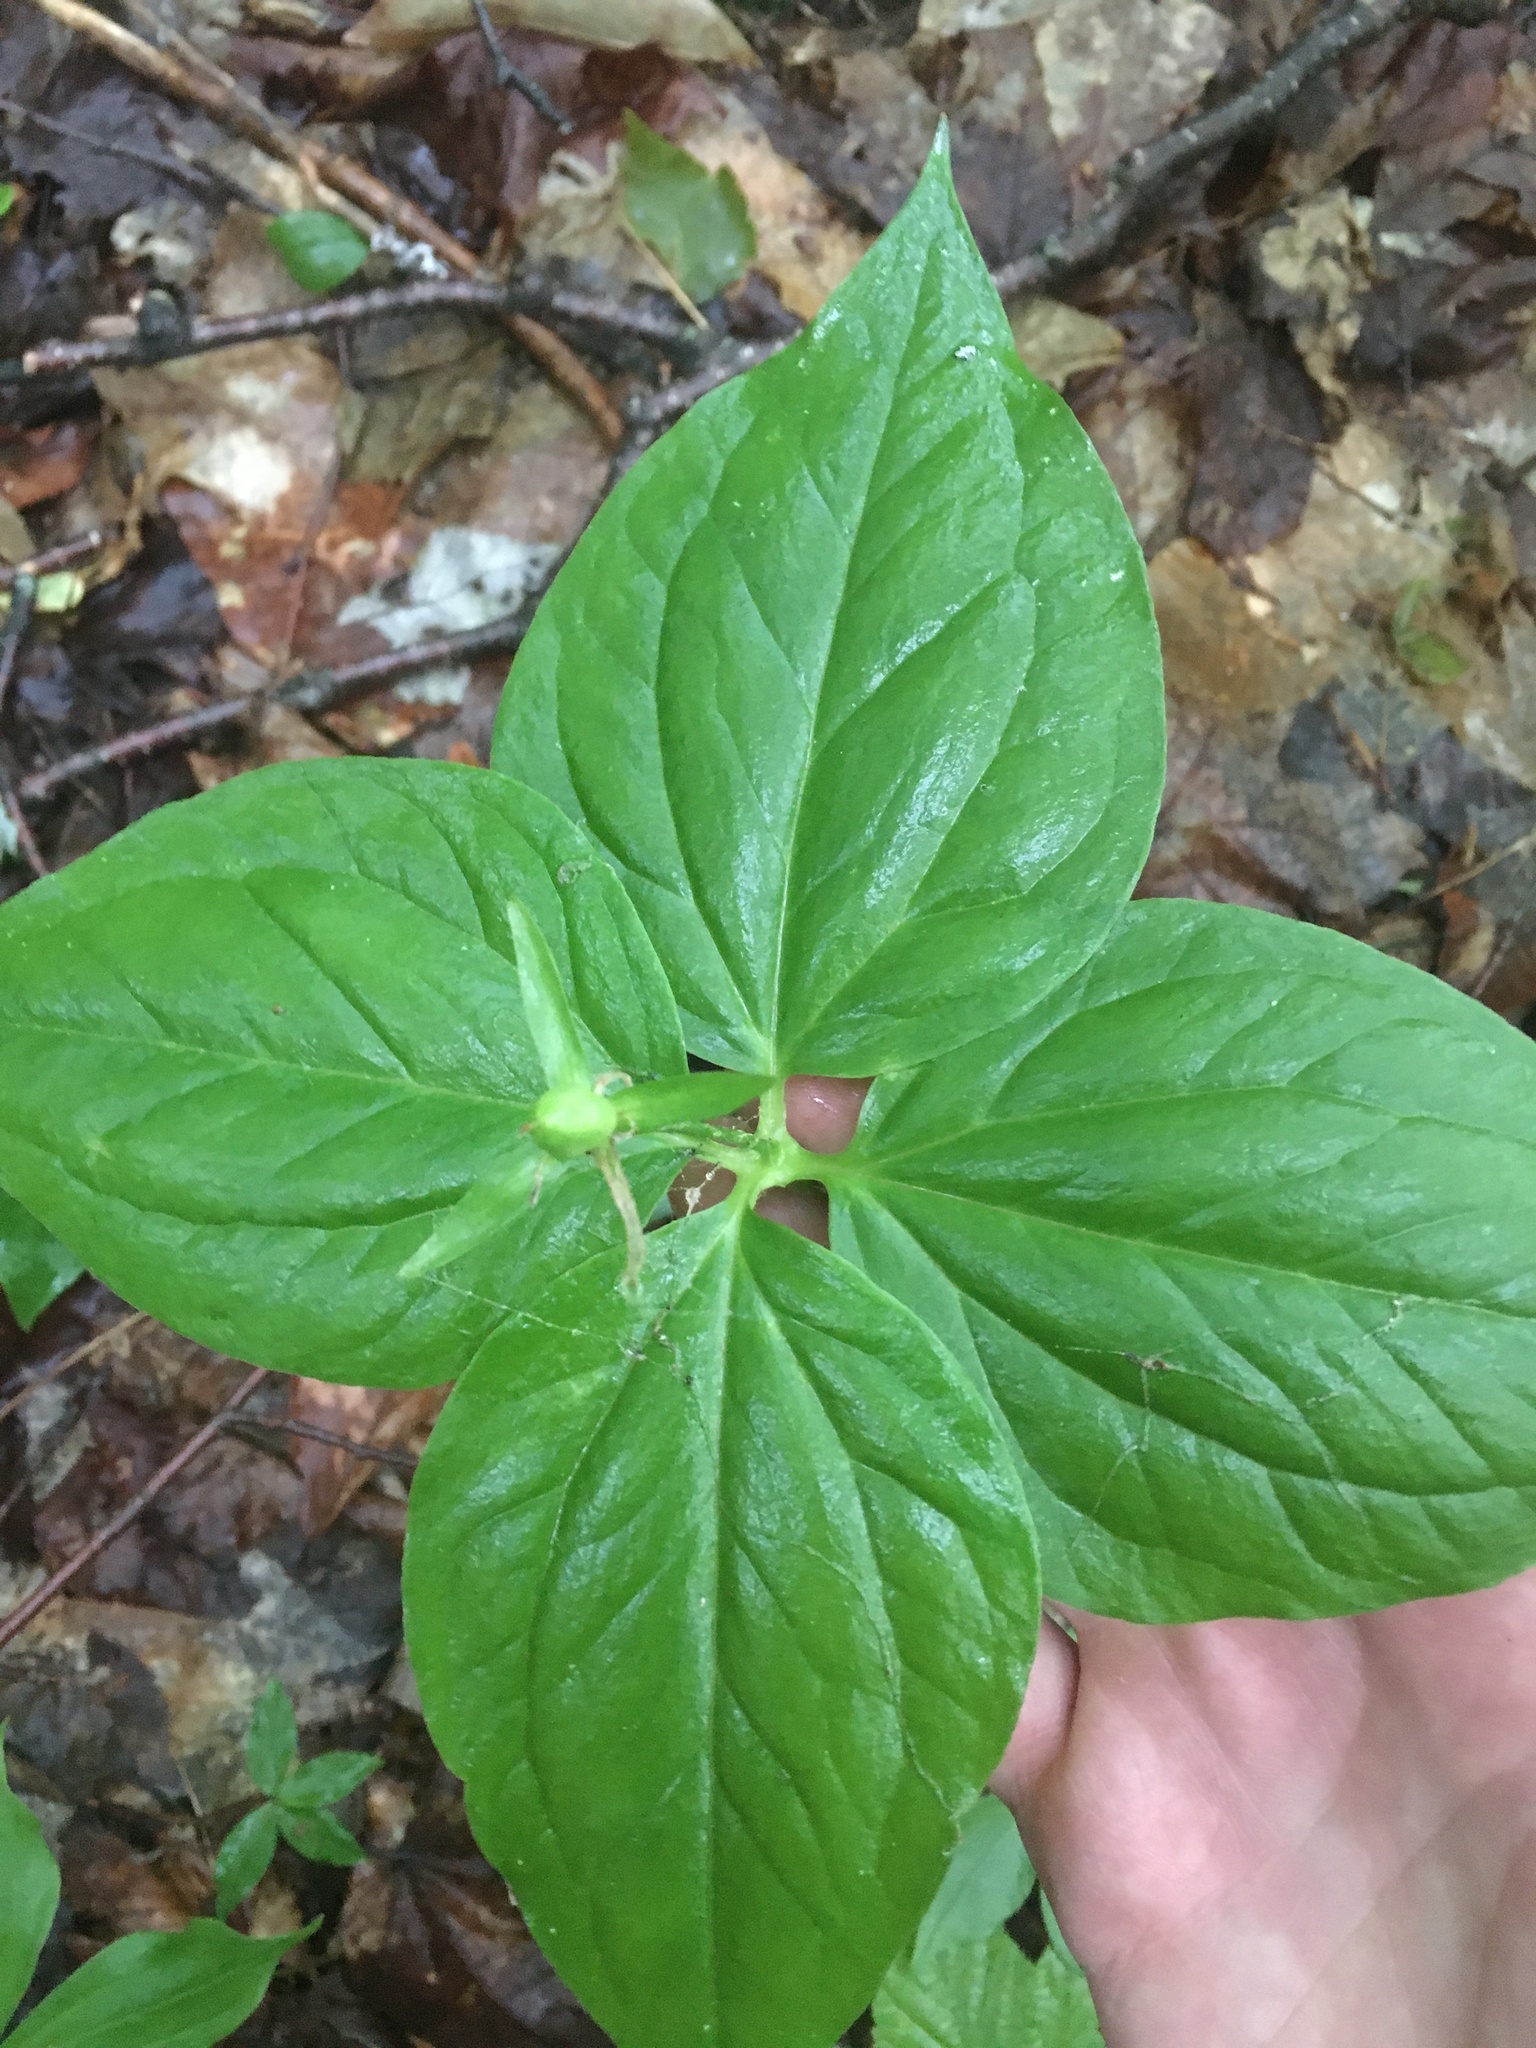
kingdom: Plantae
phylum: Tracheophyta
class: Liliopsida
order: Liliales
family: Melanthiaceae
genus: Trillium
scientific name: Trillium undulatum
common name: Paint trillium
